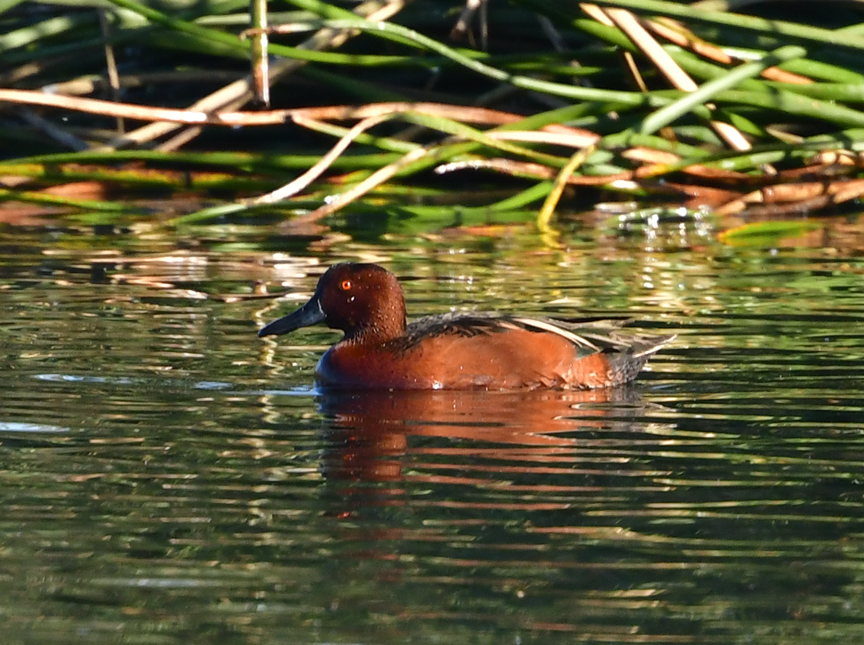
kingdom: Animalia
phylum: Chordata
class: Aves
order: Anseriformes
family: Anatidae
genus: Spatula
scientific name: Spatula cyanoptera
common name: Cinnamon teal
